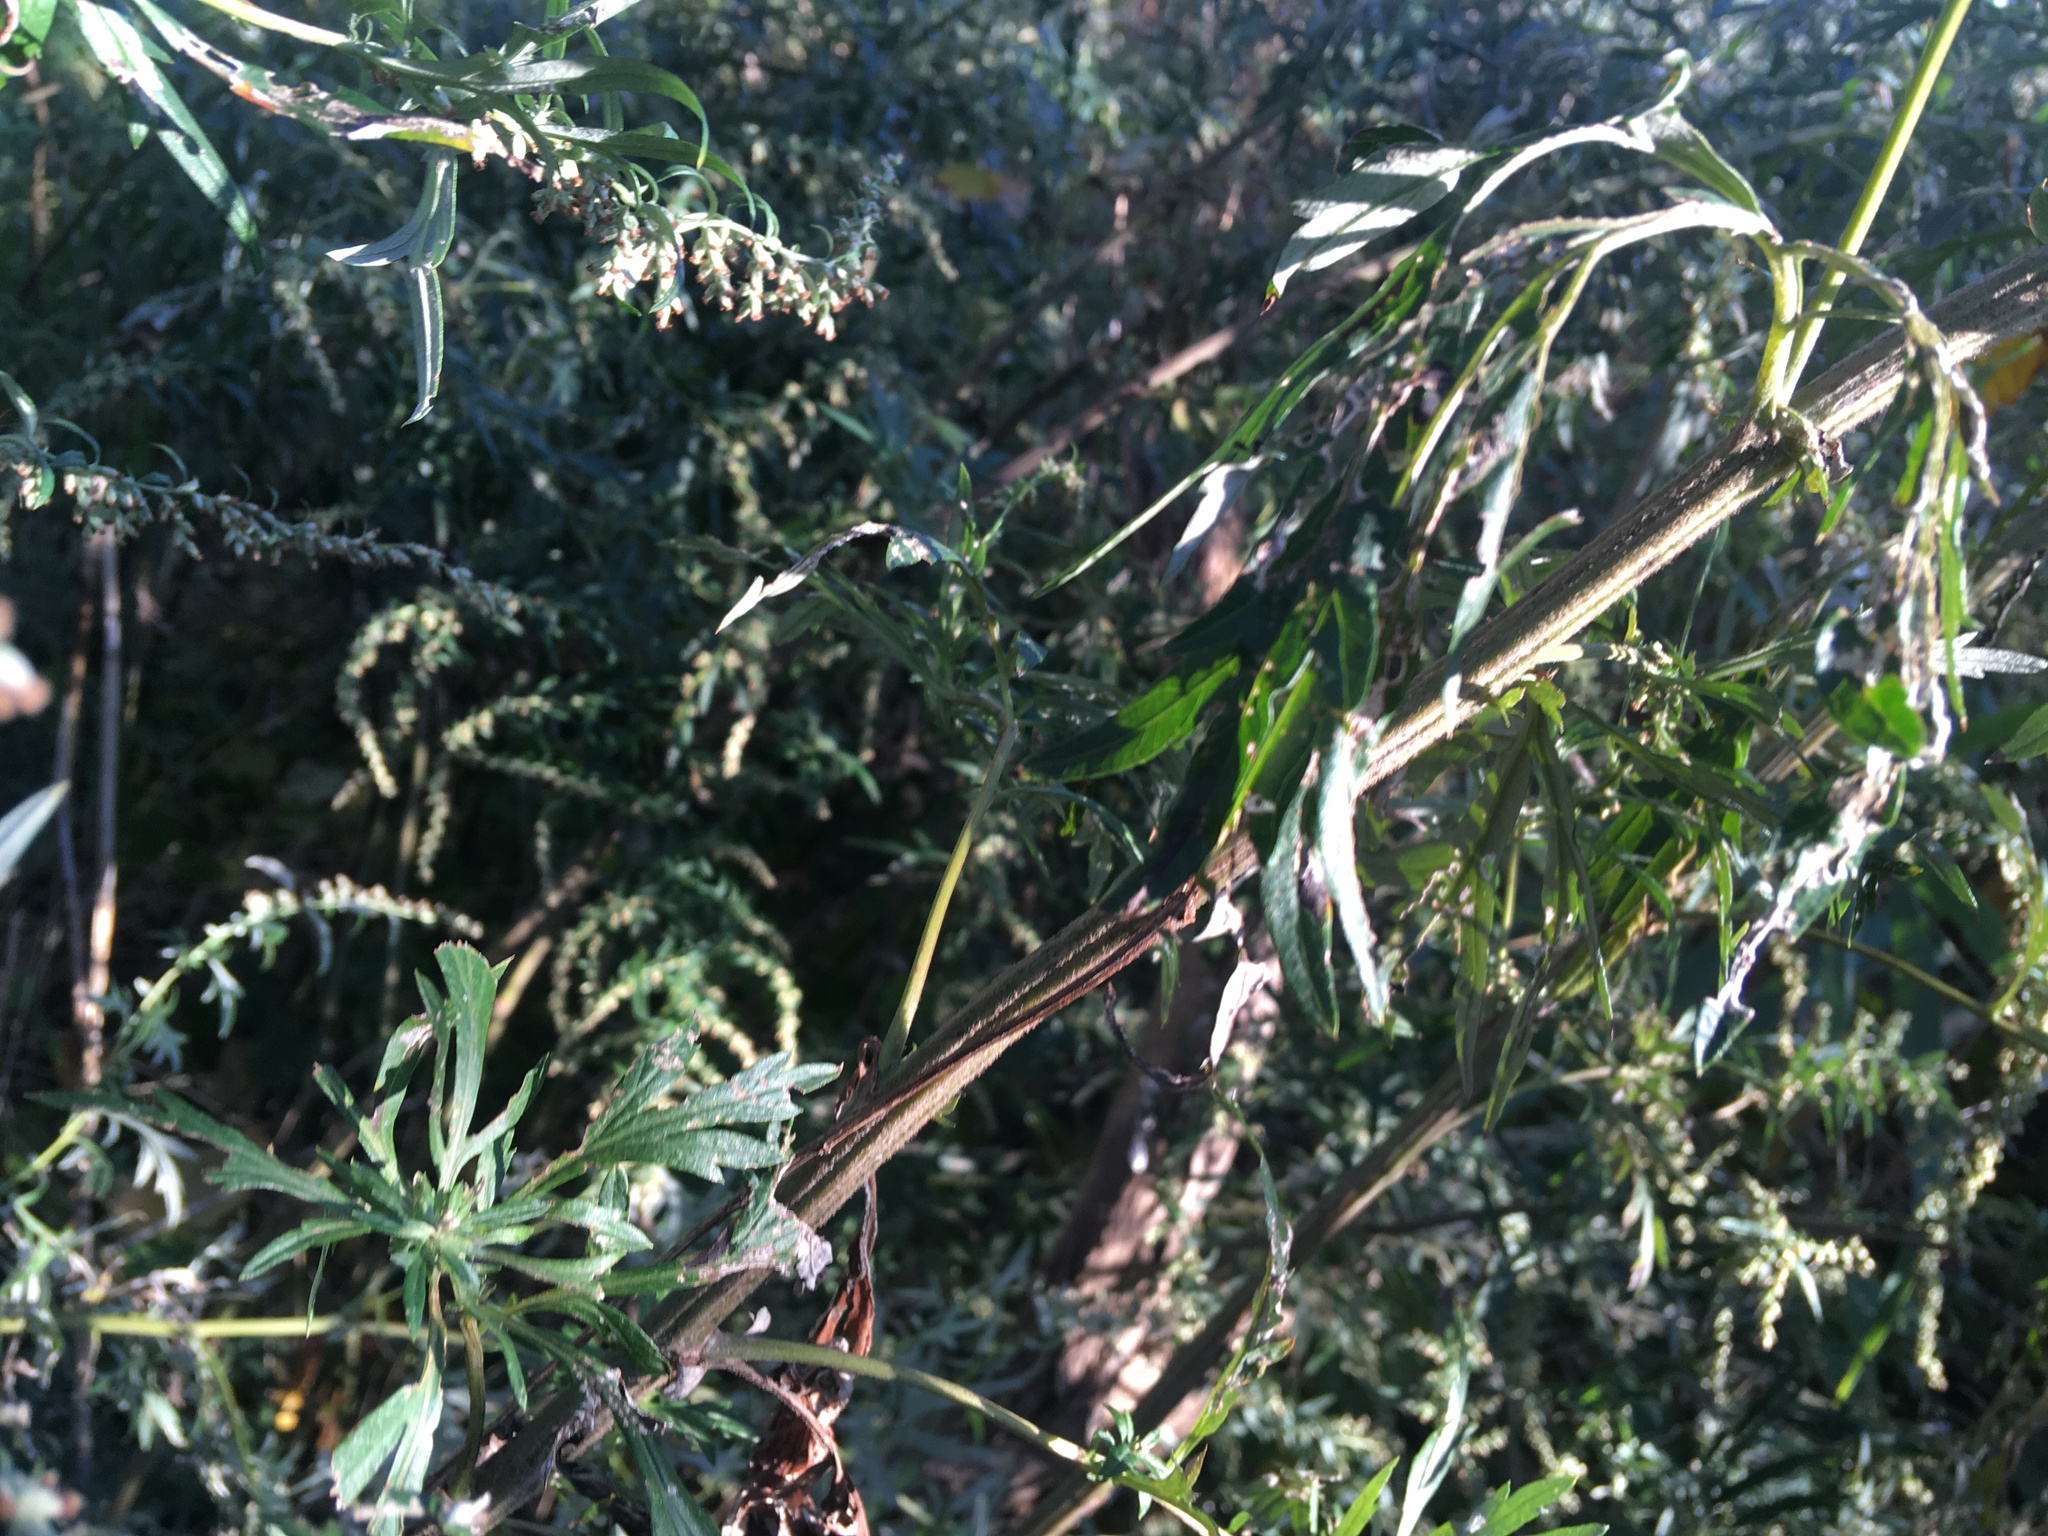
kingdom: Plantae
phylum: Tracheophyta
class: Magnoliopsida
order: Asterales
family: Asteraceae
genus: Artemisia
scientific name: Artemisia vulgaris
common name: Mugwort
